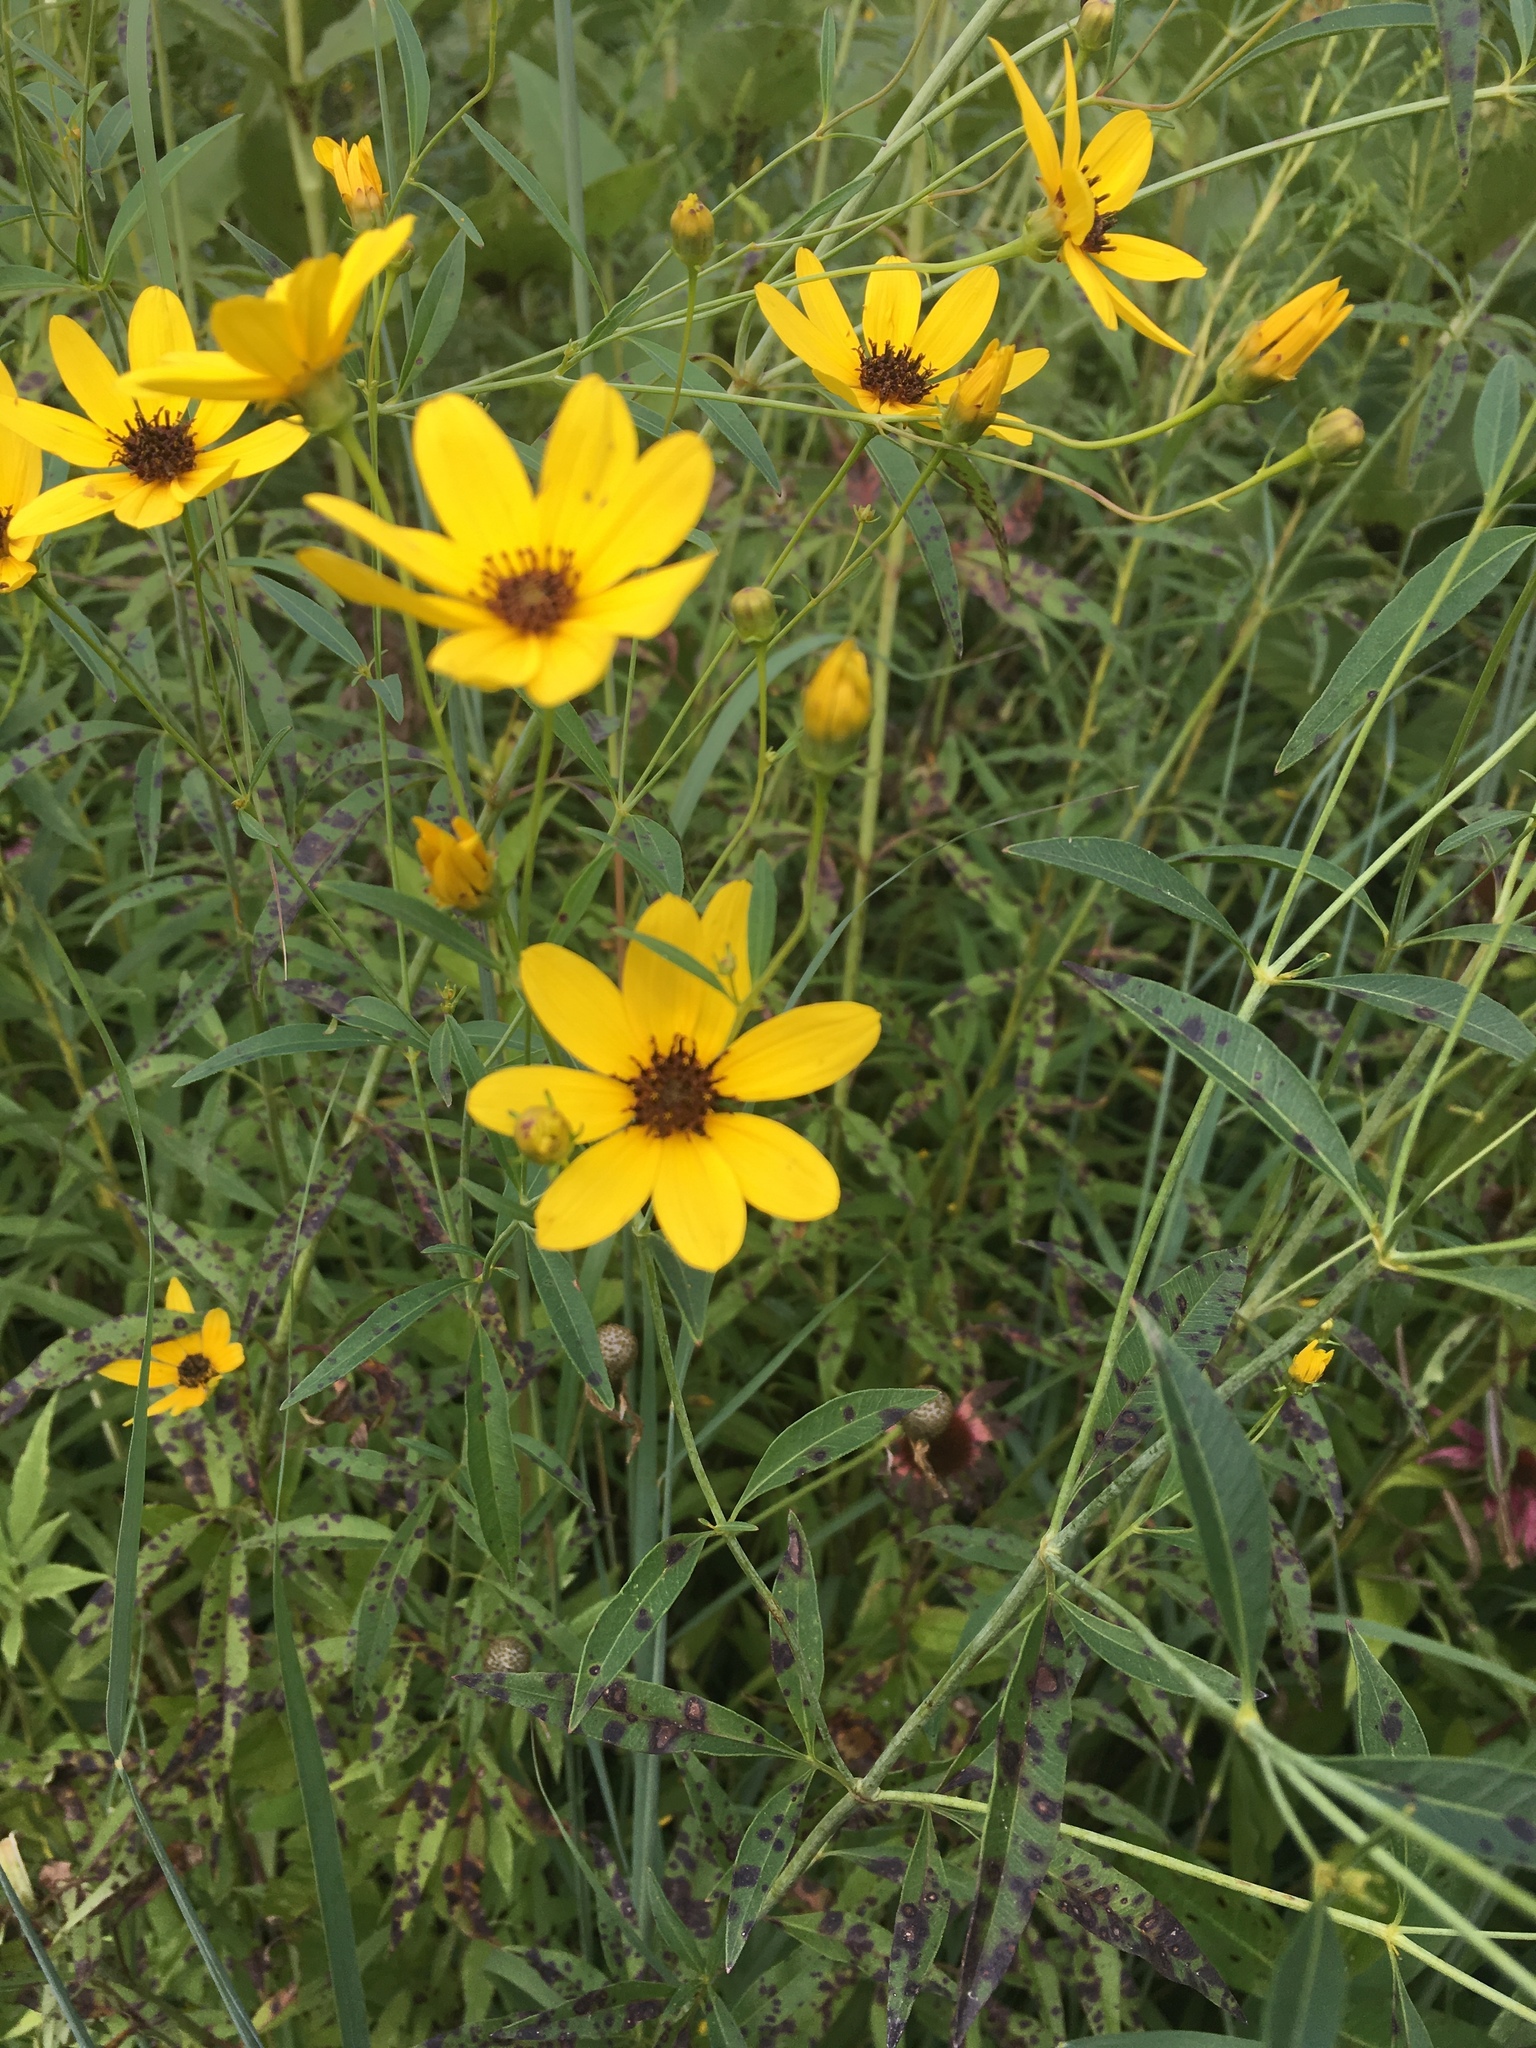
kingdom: Plantae
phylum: Tracheophyta
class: Magnoliopsida
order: Asterales
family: Asteraceae
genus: Coreopsis
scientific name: Coreopsis tripteris
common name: Tall coreopsis
